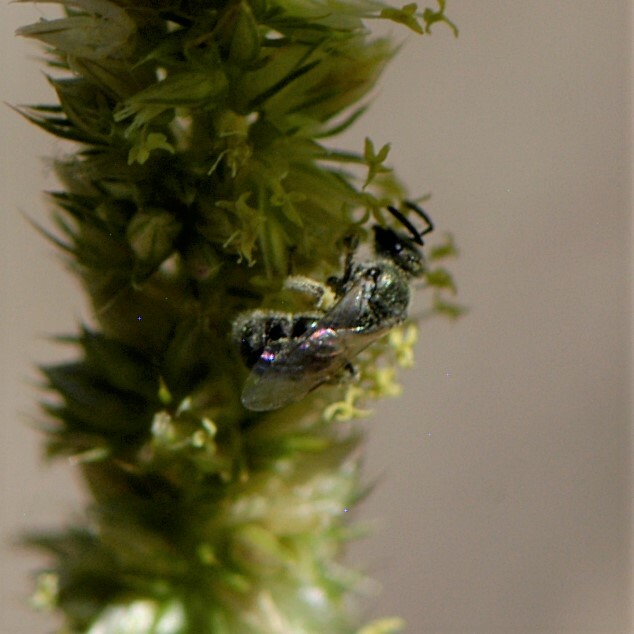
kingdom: Animalia
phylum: Arthropoda
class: Insecta
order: Hymenoptera
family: Halictidae
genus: Dialictus
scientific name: Dialictus
